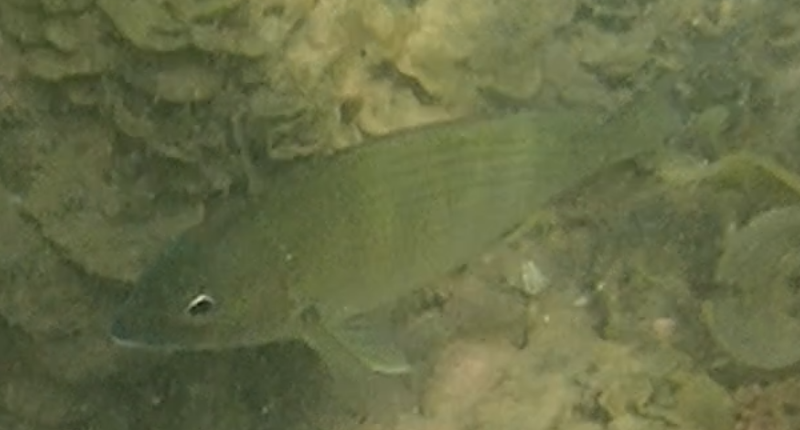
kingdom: Animalia
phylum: Chordata
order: Perciformes
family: Sparidae
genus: Acanthopagrus
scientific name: Acanthopagrus australis
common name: Surf bream
